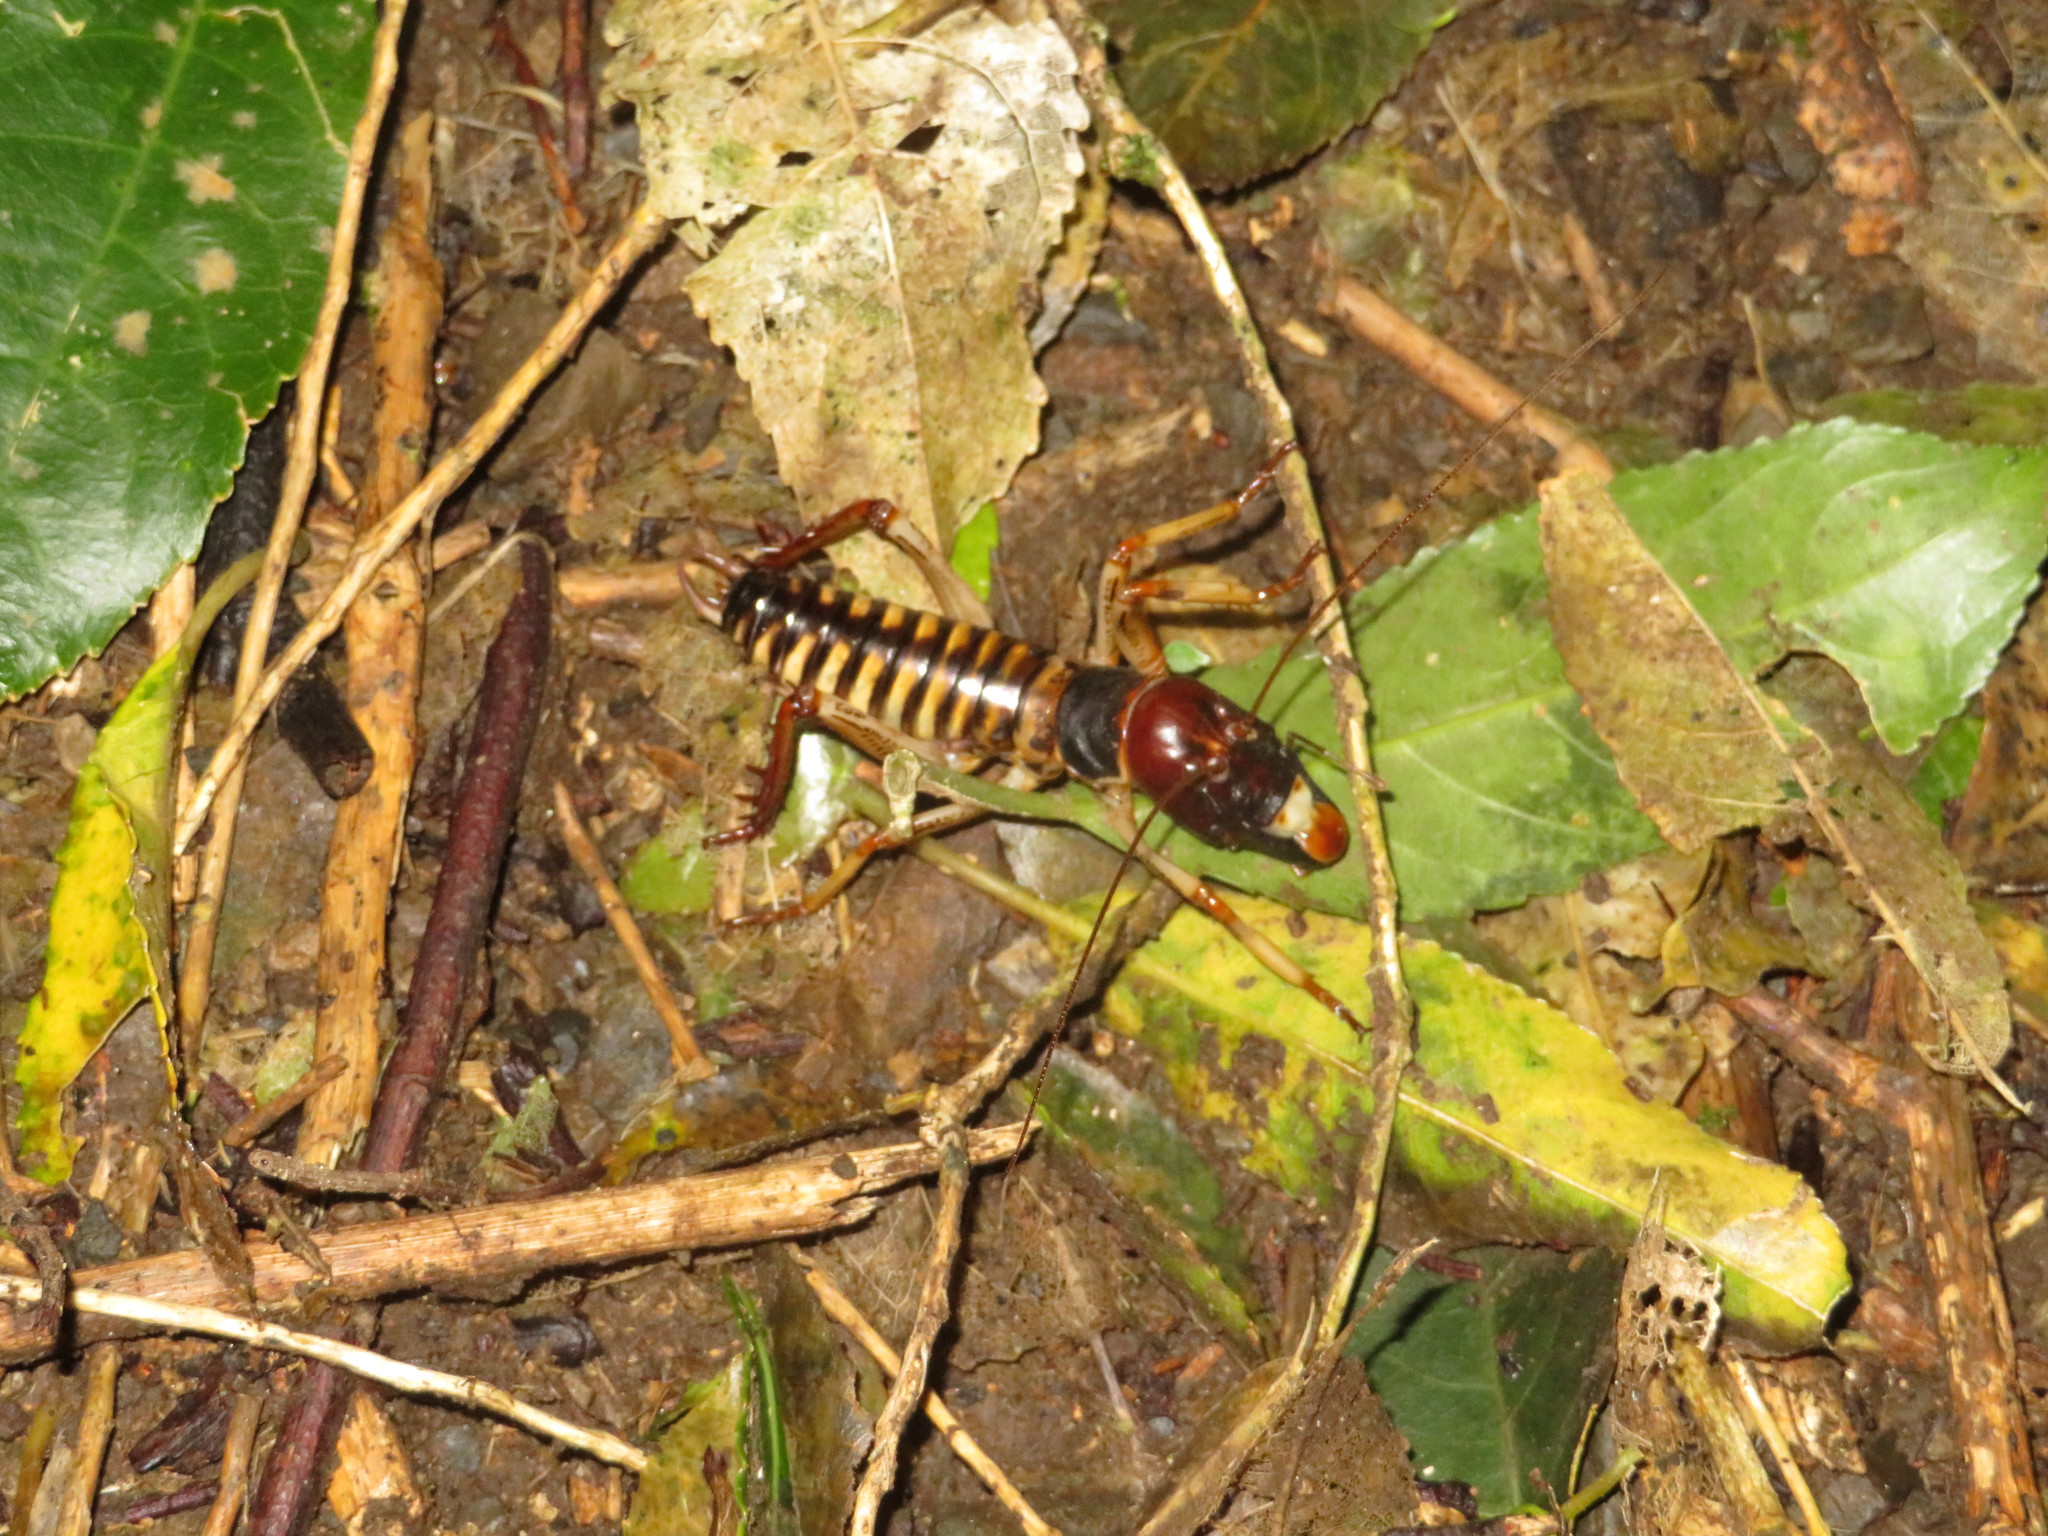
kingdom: Animalia
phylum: Arthropoda
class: Insecta
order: Orthoptera
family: Anostostomatidae
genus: Hemideina
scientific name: Hemideina crassidens
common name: Wellington tree weta
